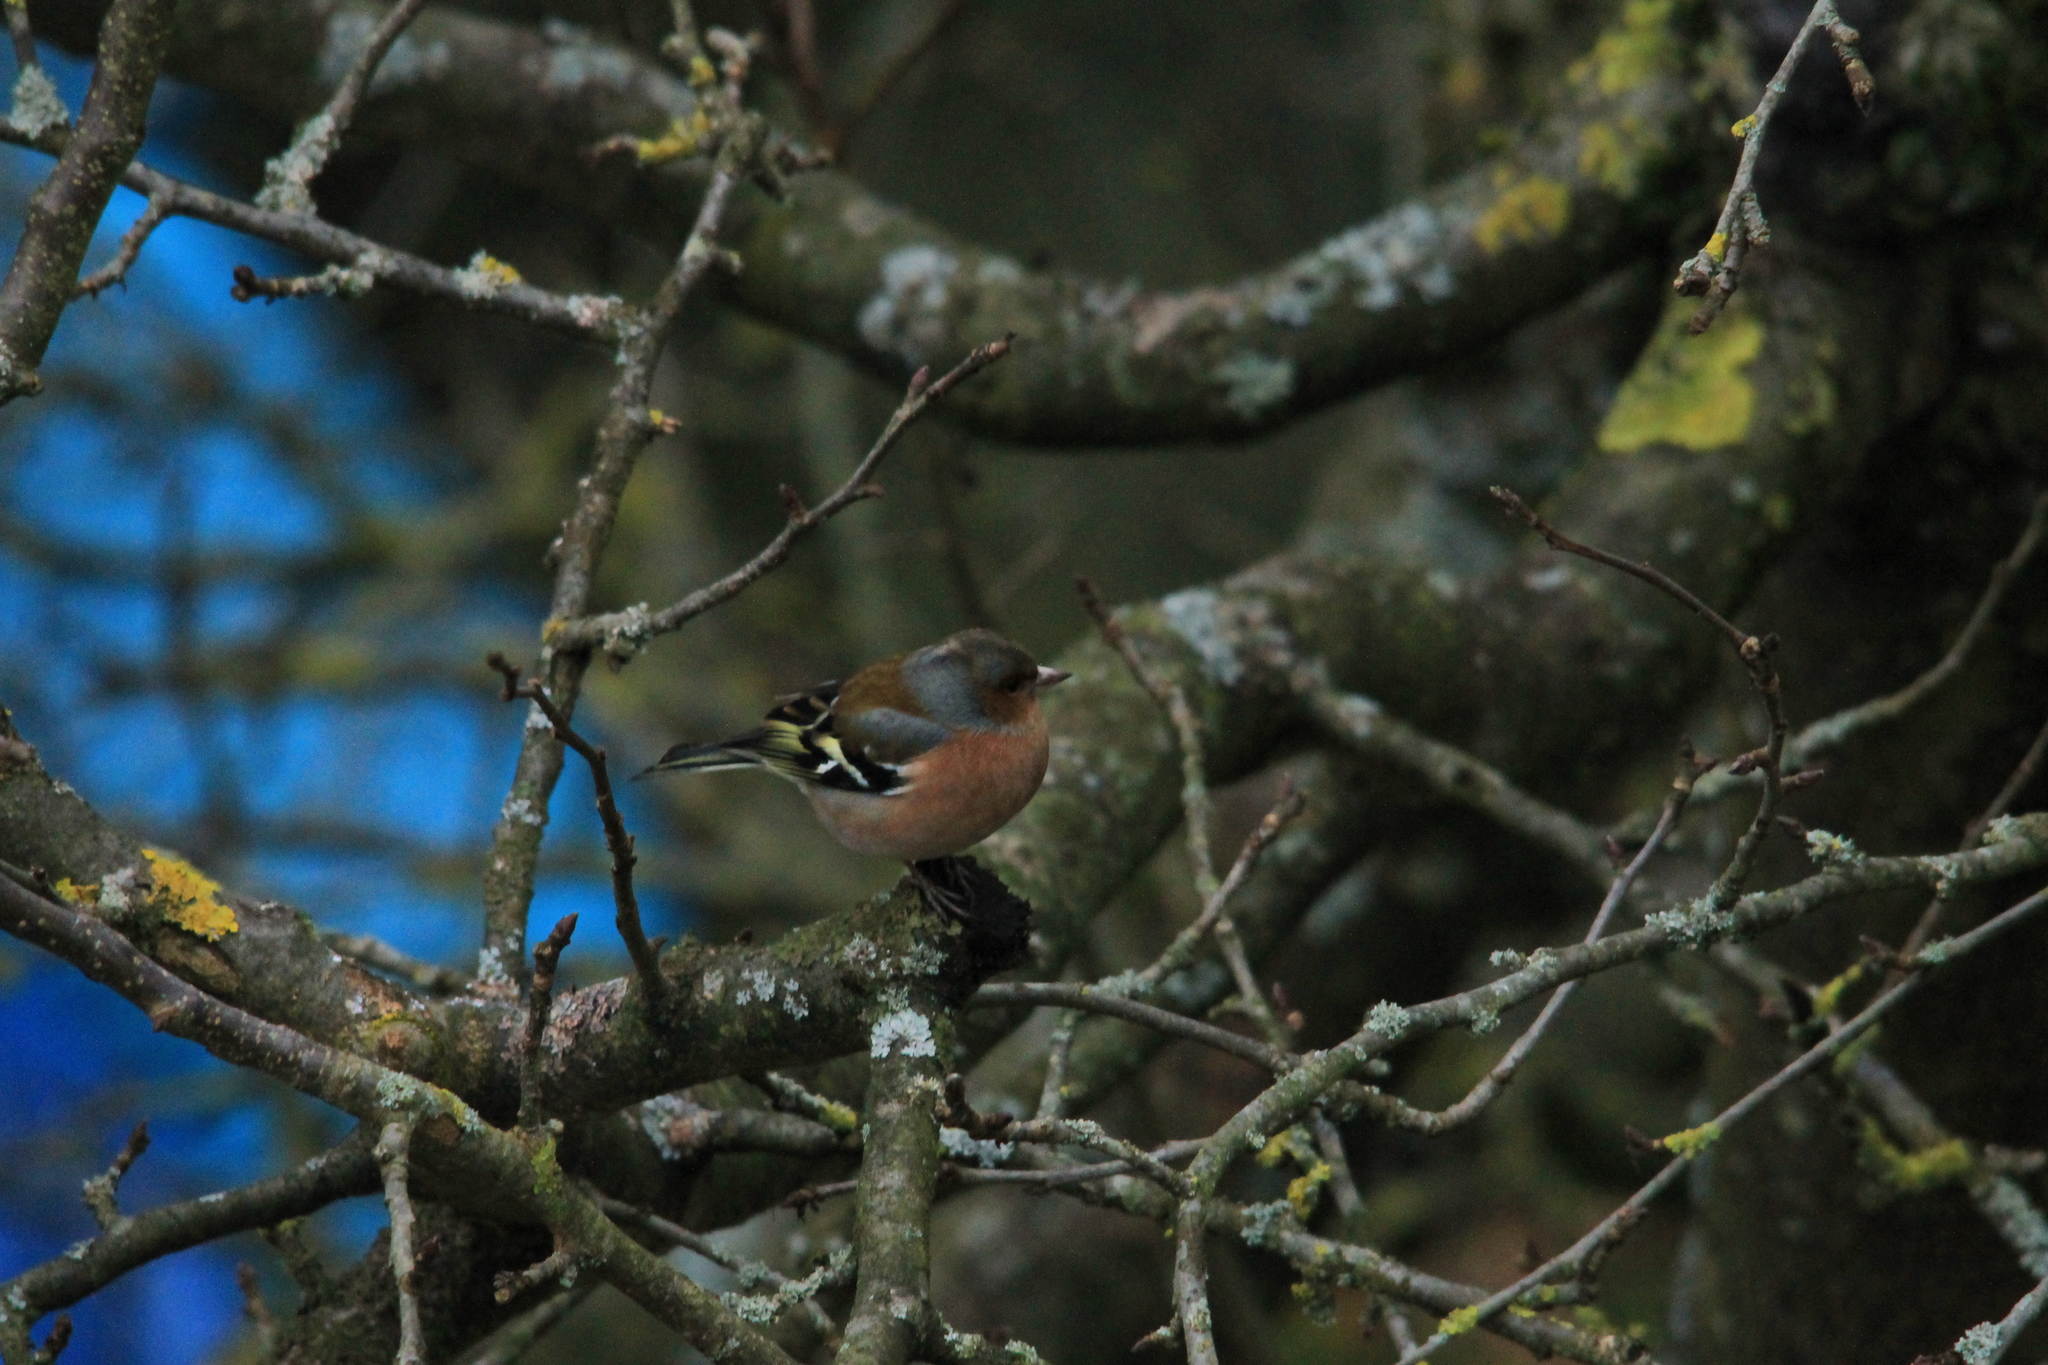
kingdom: Animalia
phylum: Chordata
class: Aves
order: Passeriformes
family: Fringillidae
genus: Fringilla
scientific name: Fringilla coelebs
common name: Common chaffinch
